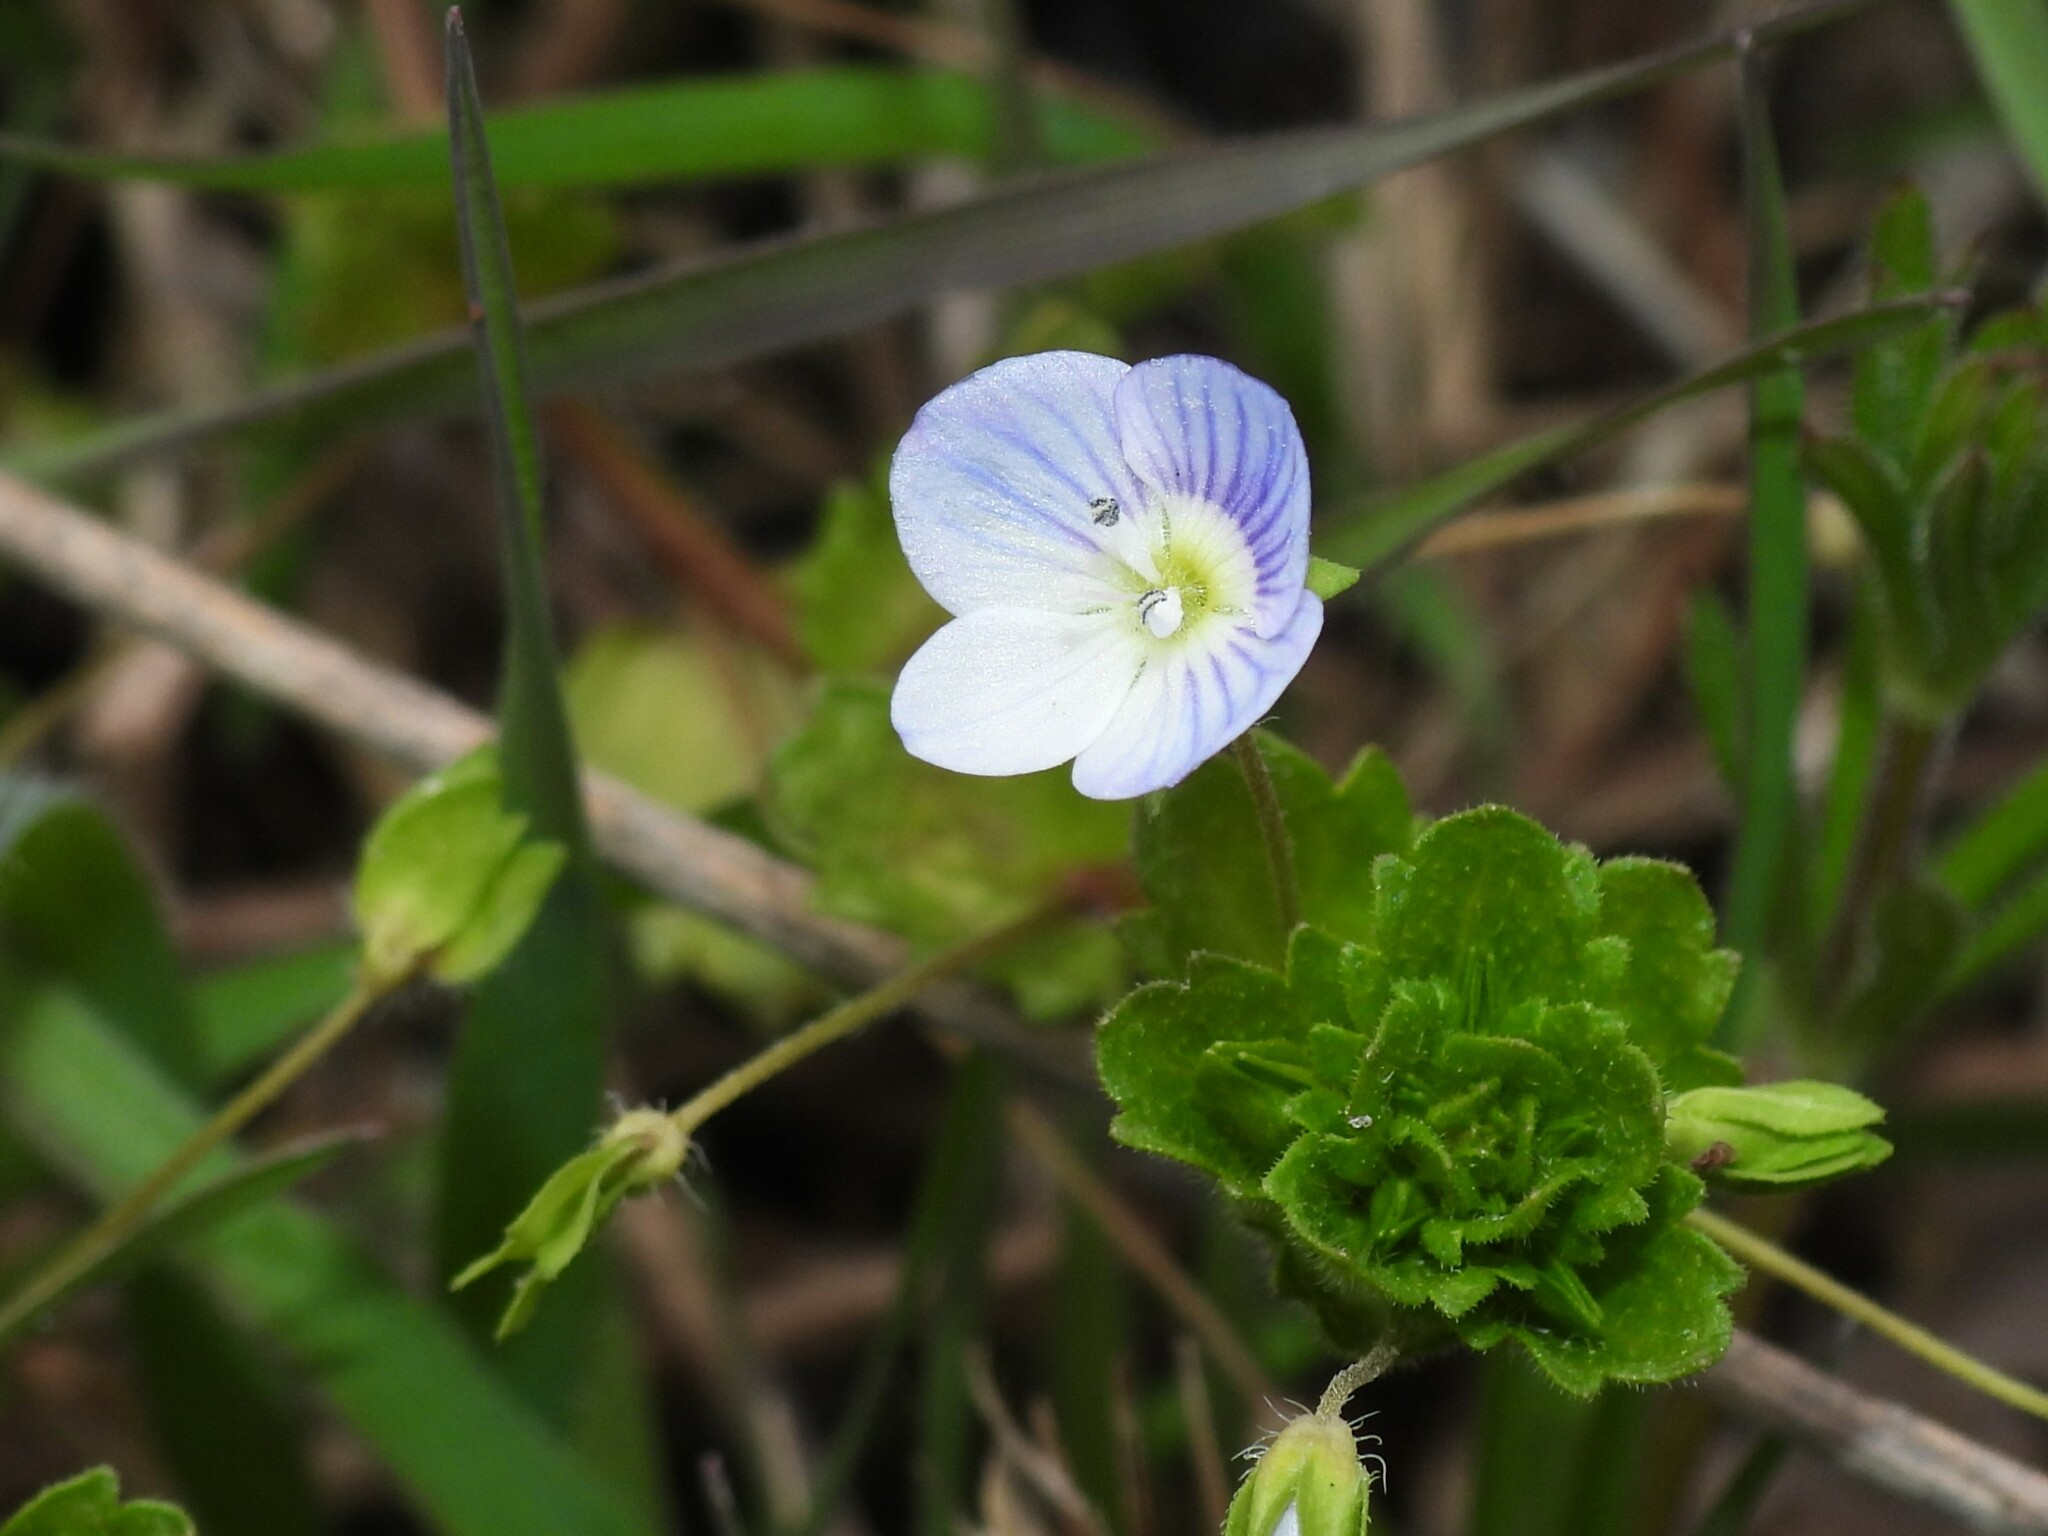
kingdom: Plantae
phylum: Tracheophyta
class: Magnoliopsida
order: Lamiales
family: Plantaginaceae
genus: Veronica
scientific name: Veronica persica
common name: Common field-speedwell
